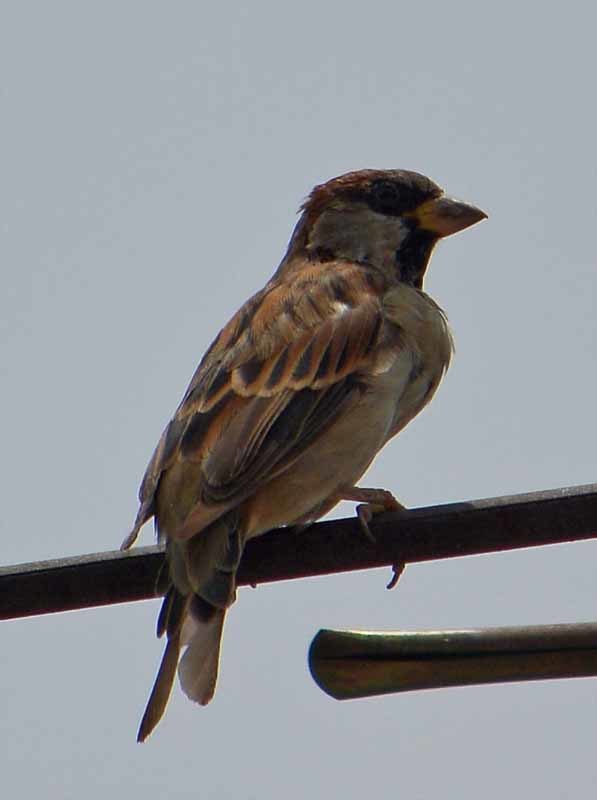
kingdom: Animalia
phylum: Chordata
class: Aves
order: Passeriformes
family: Passeridae
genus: Passer
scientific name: Passer domesticus
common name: House sparrow
